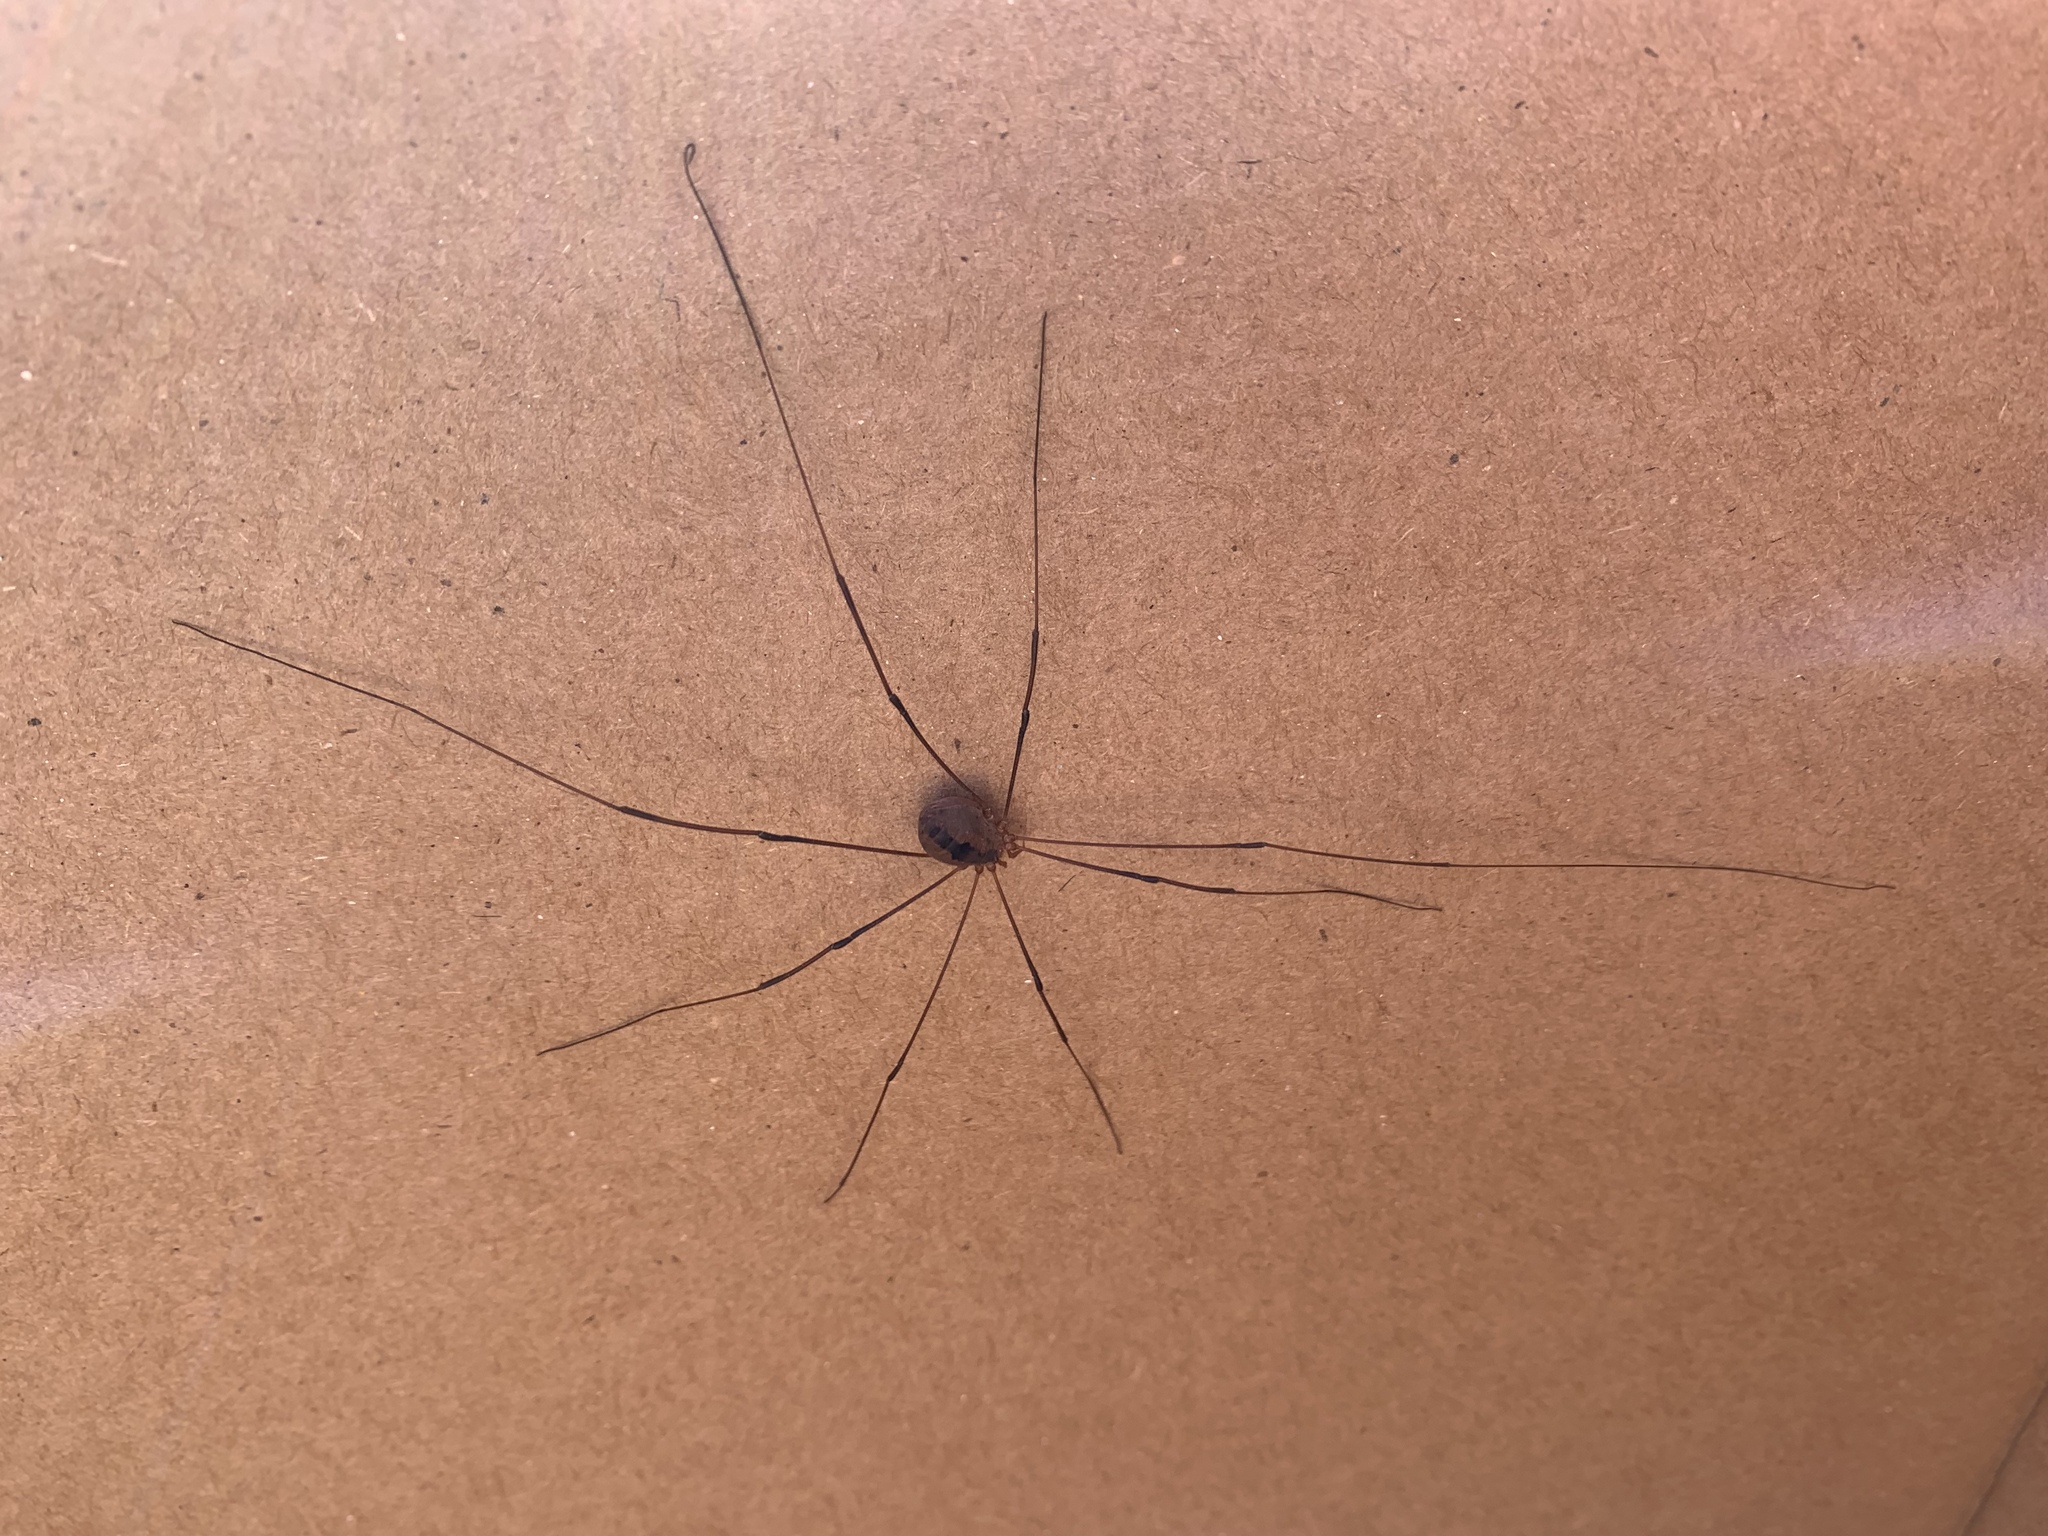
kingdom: Animalia
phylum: Arthropoda
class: Arachnida
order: Opiliones
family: Sclerosomatidae
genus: Leiobunum
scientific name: Leiobunum vittatum
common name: Eastern harvestman
